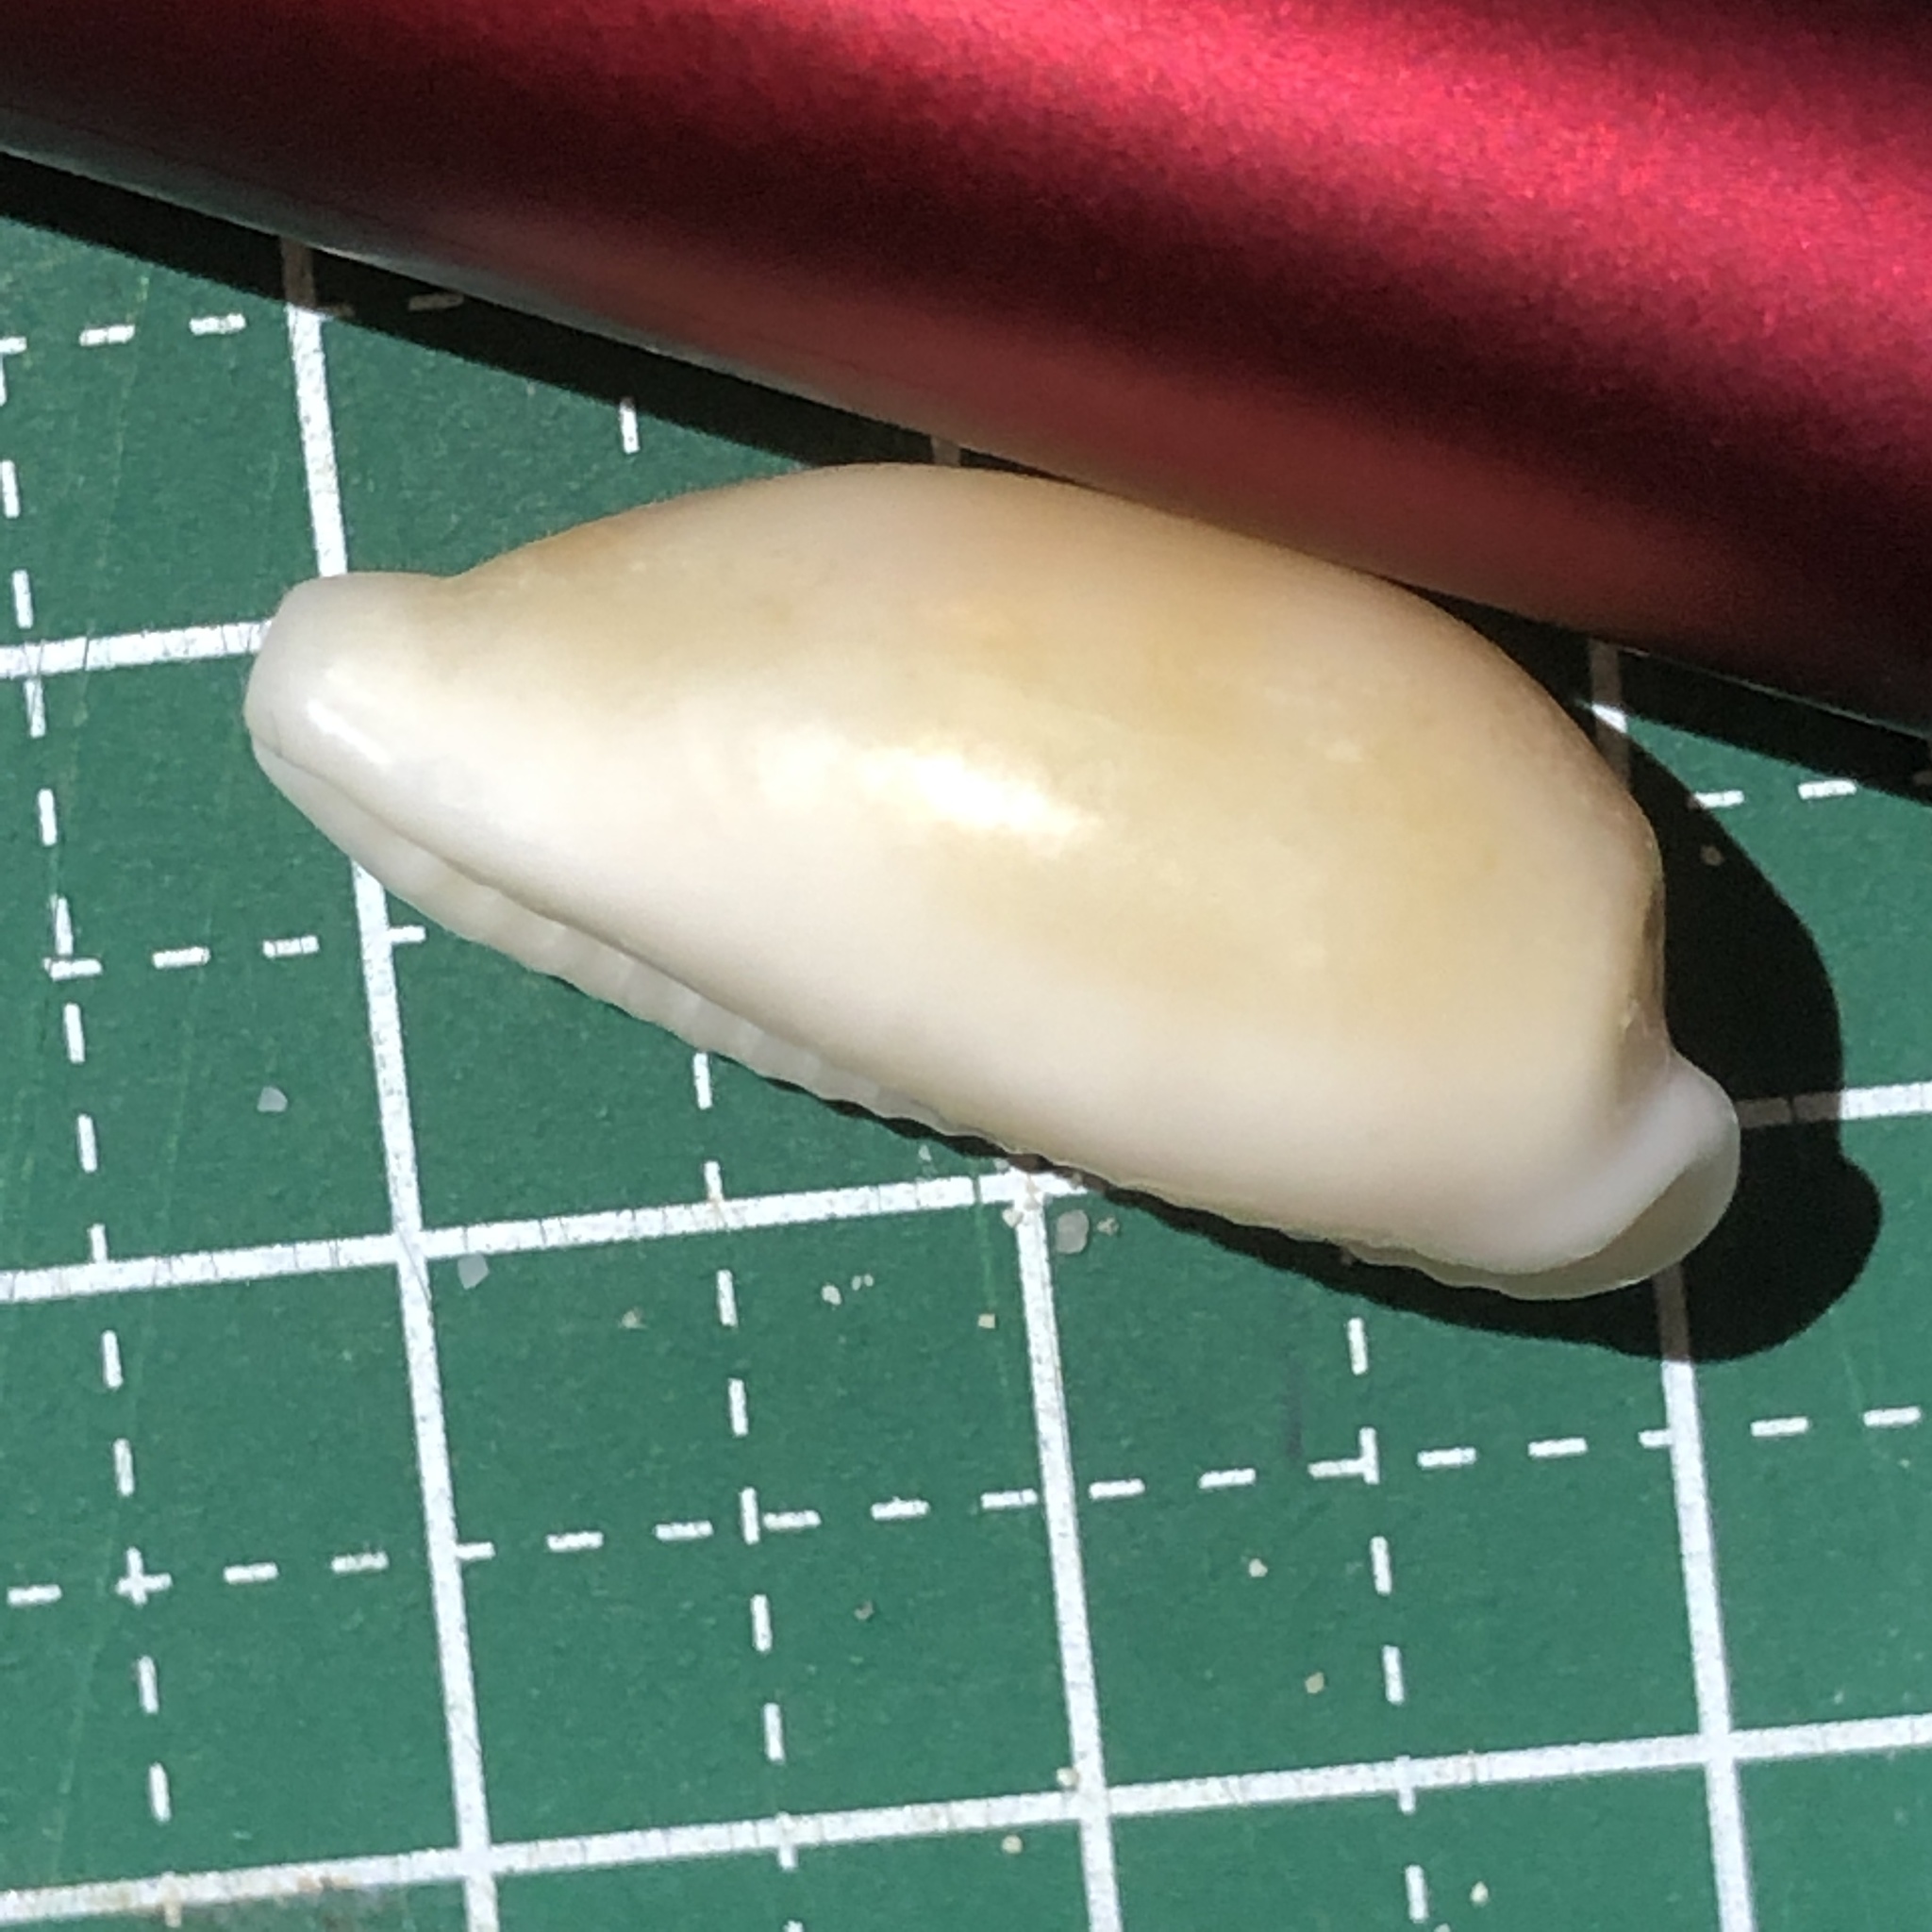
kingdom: Animalia
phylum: Mollusca
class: Gastropoda
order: Littorinimorpha
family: Cypraeidae
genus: Blasicrura
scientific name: Blasicrura pallidula
